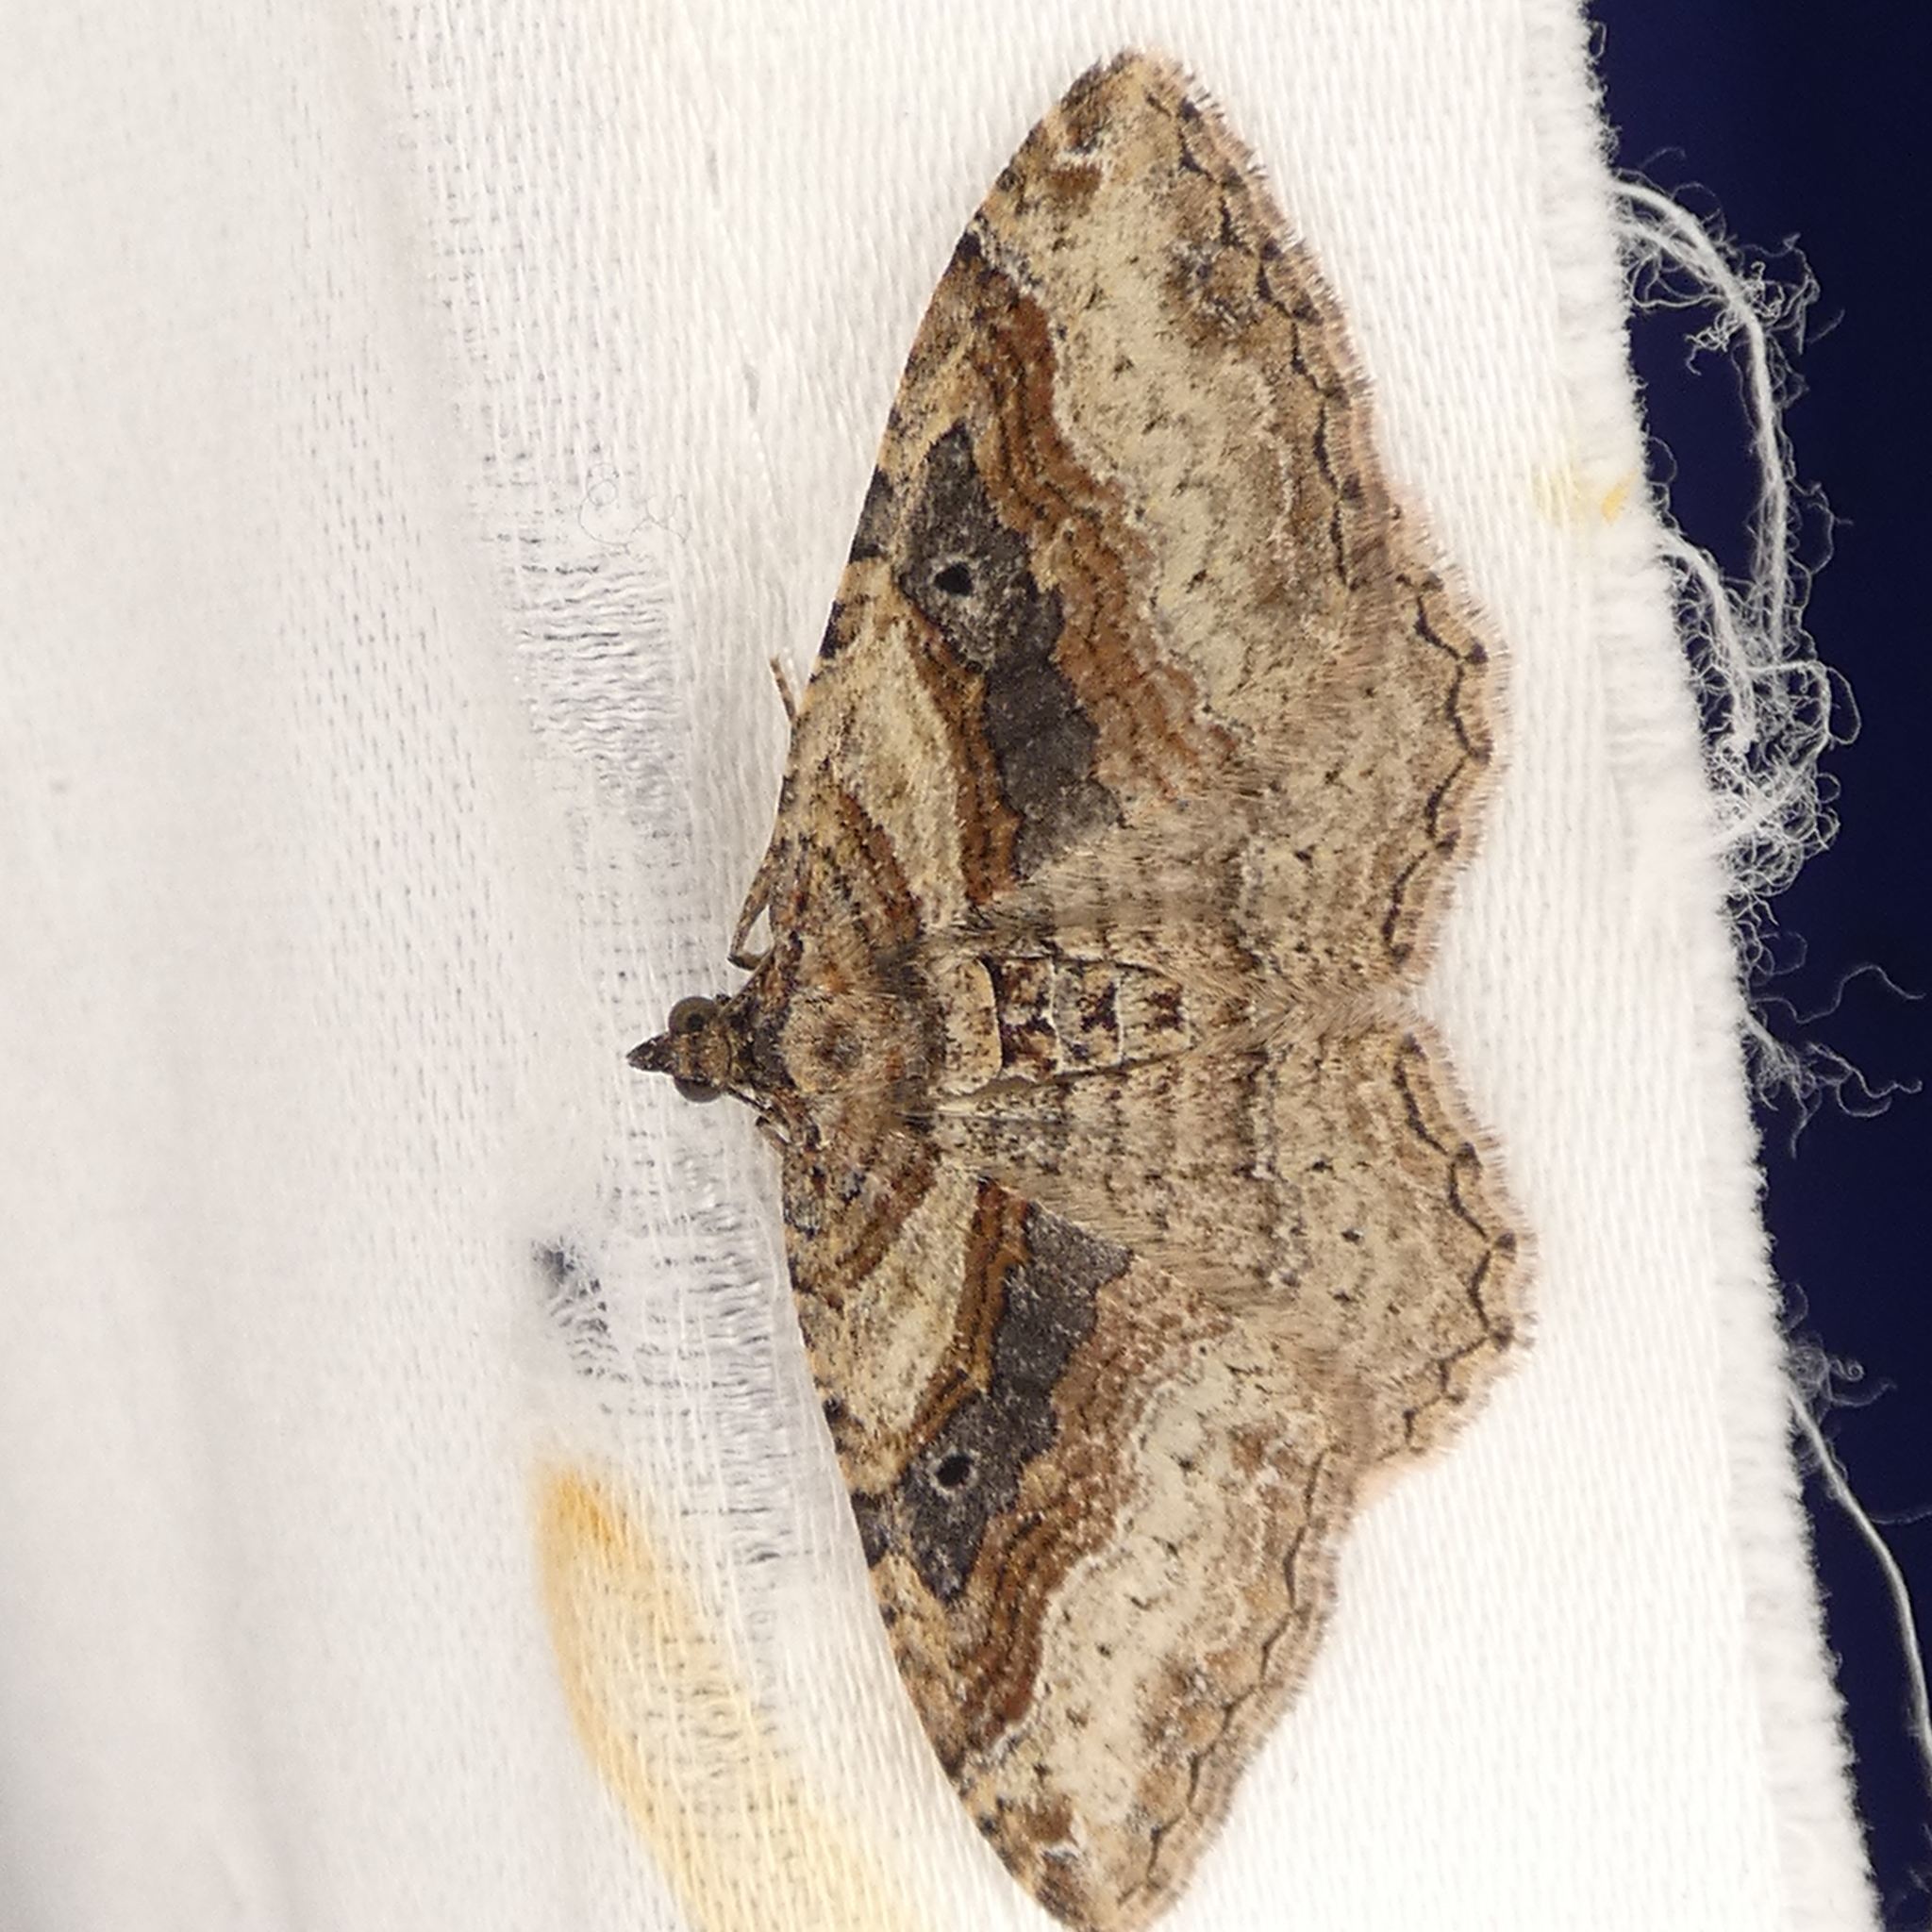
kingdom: Animalia
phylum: Arthropoda
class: Insecta
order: Lepidoptera
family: Geometridae
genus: Costaconvexa
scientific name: Costaconvexa centrostrigaria
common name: Bent-line carpet
